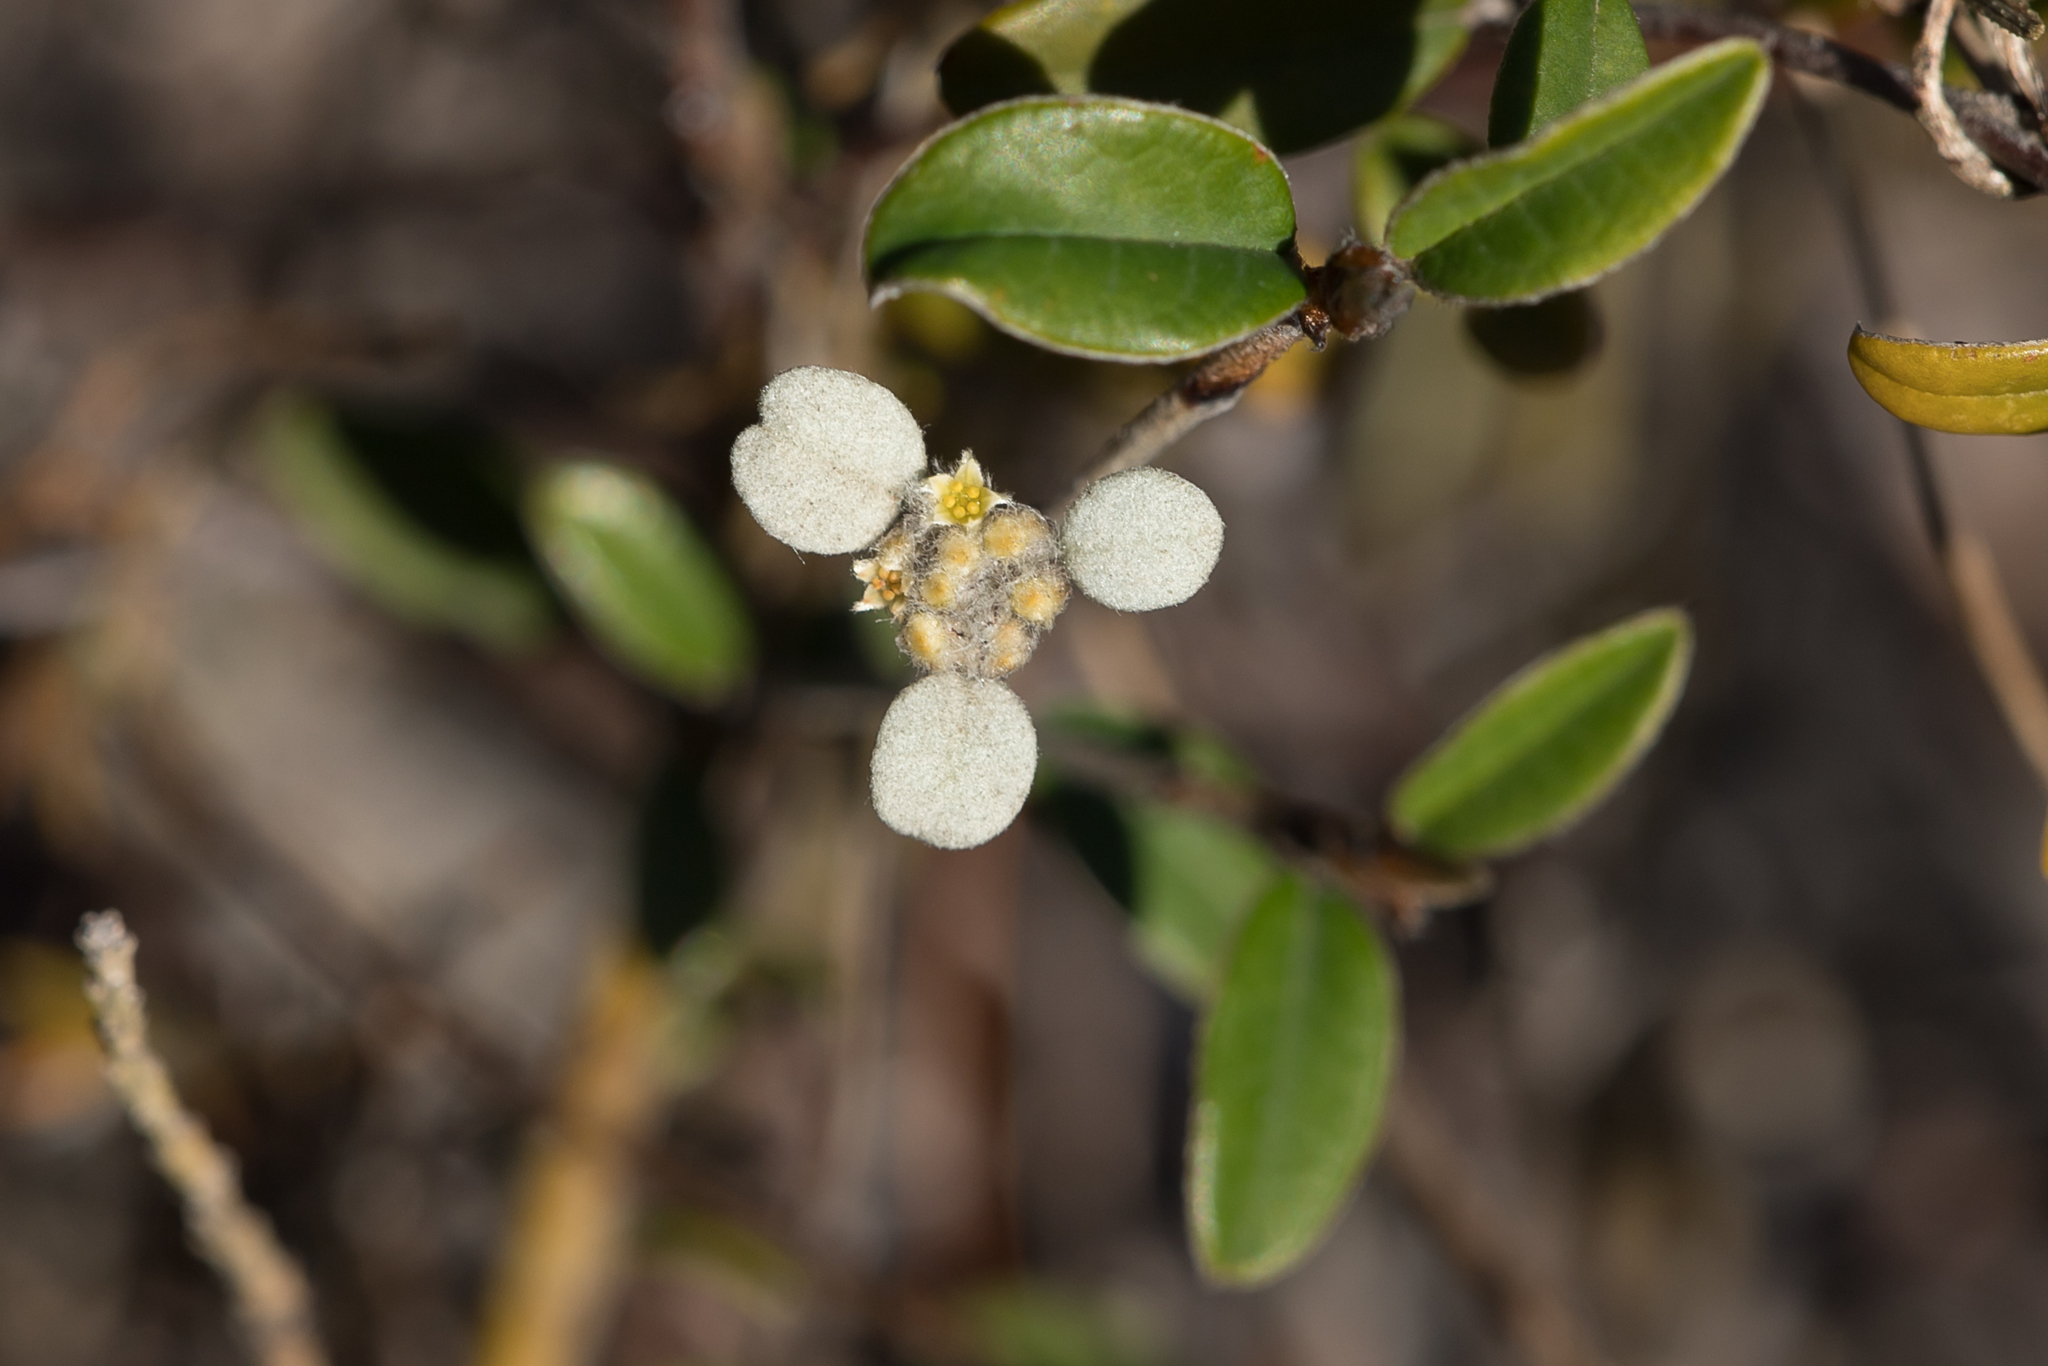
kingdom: Plantae
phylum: Tracheophyta
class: Magnoliopsida
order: Rosales
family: Rhamnaceae
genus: Spyridium
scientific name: Spyridium thymifolium
